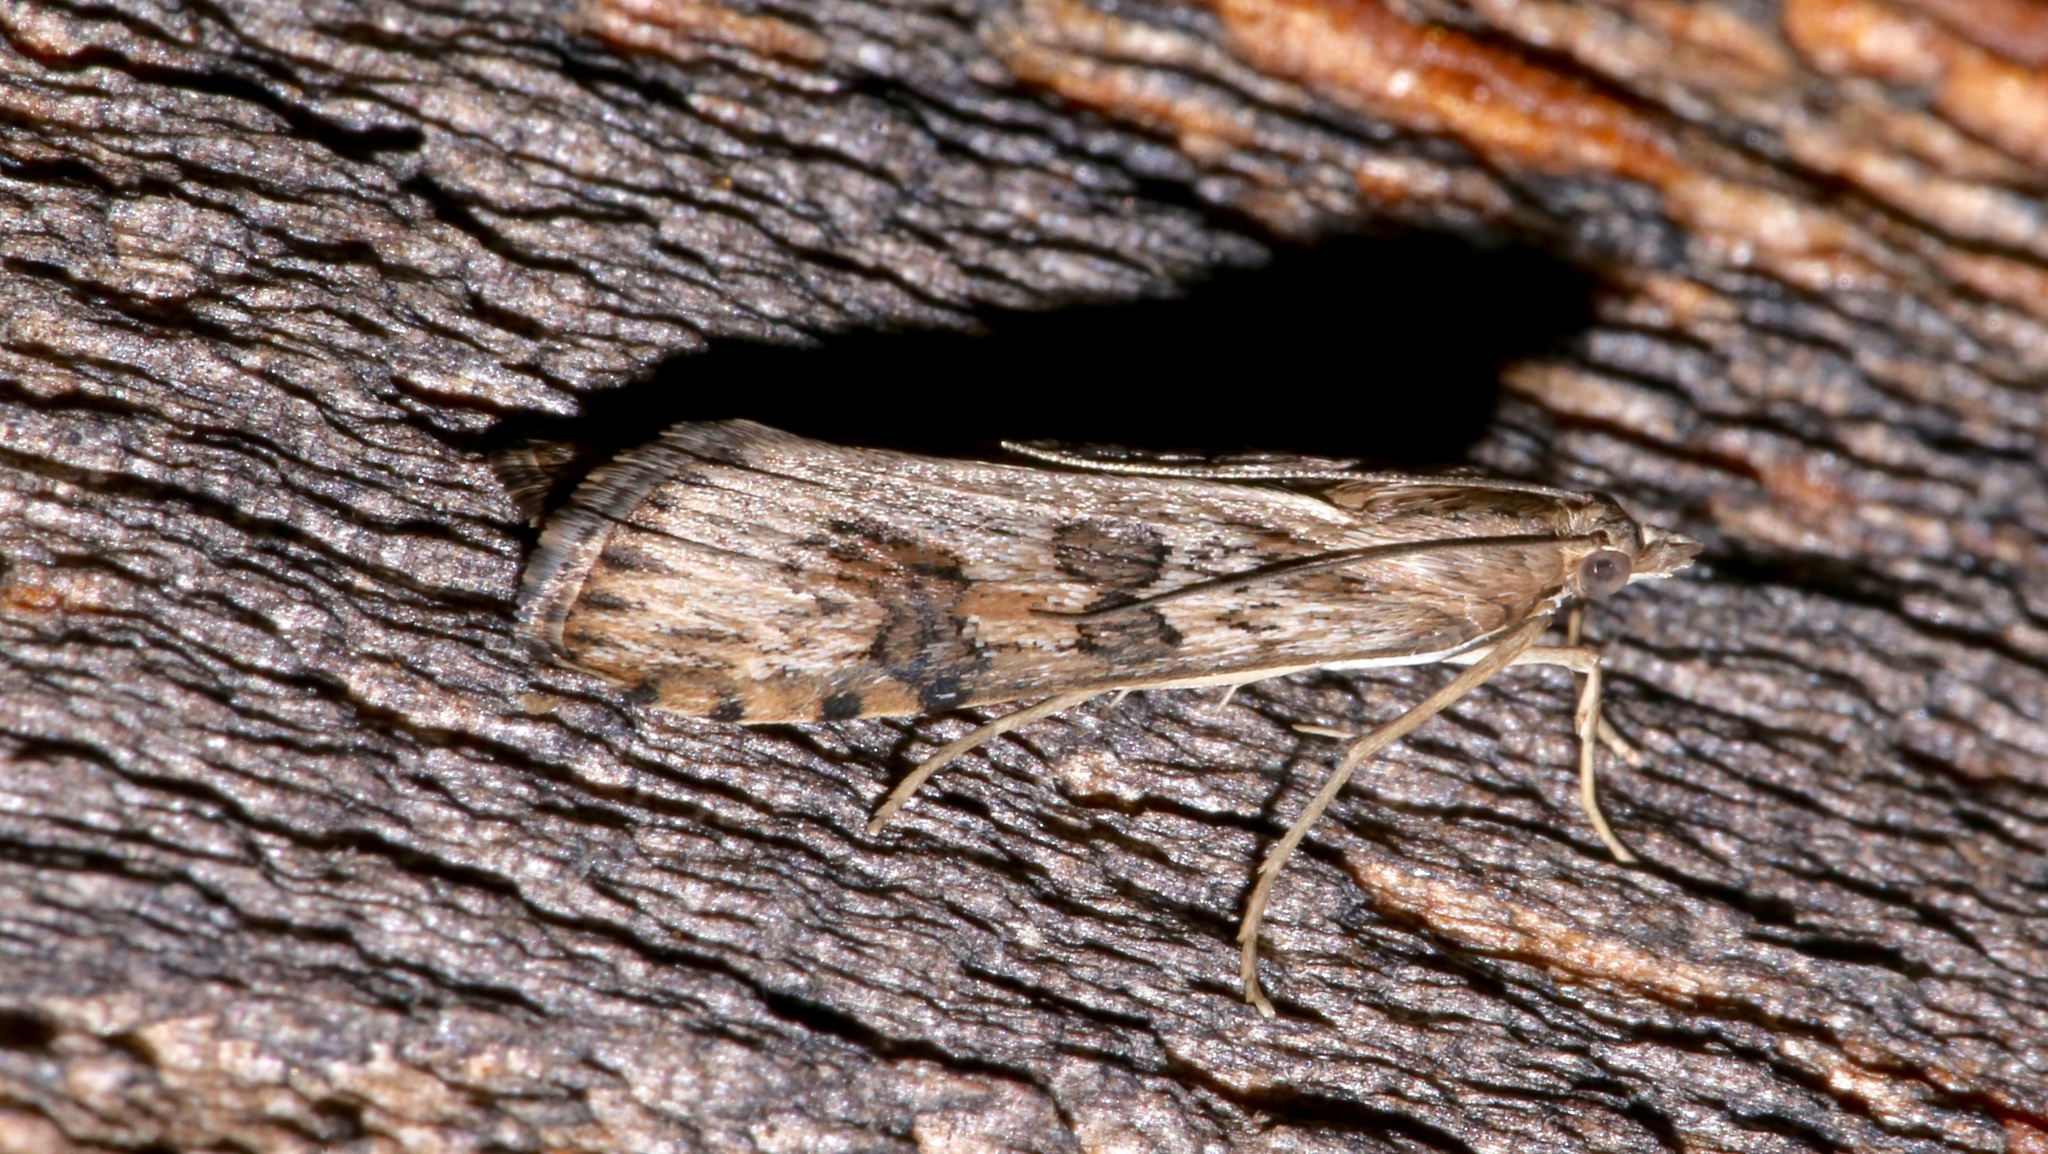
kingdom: Animalia
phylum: Arthropoda
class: Insecta
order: Lepidoptera
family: Crambidae
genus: Nomophila
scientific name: Nomophila nearctica
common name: American rush veneer
